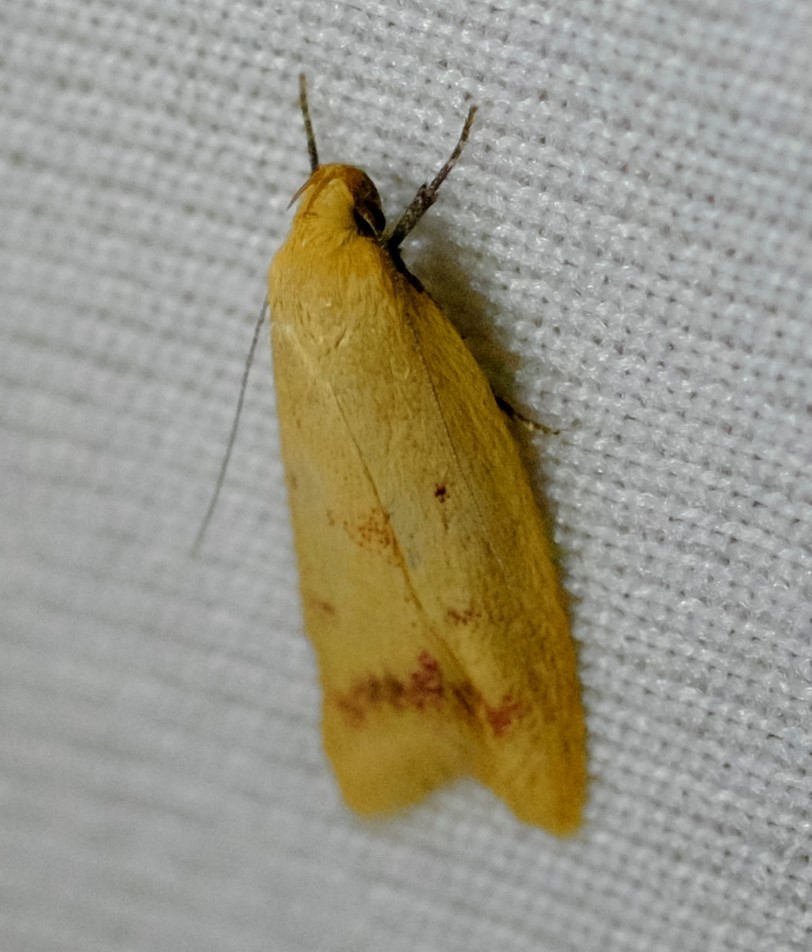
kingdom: Animalia
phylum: Arthropoda
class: Insecta
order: Lepidoptera
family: Oecophoridae
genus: Heteroteucha
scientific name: Heteroteucha occidua
